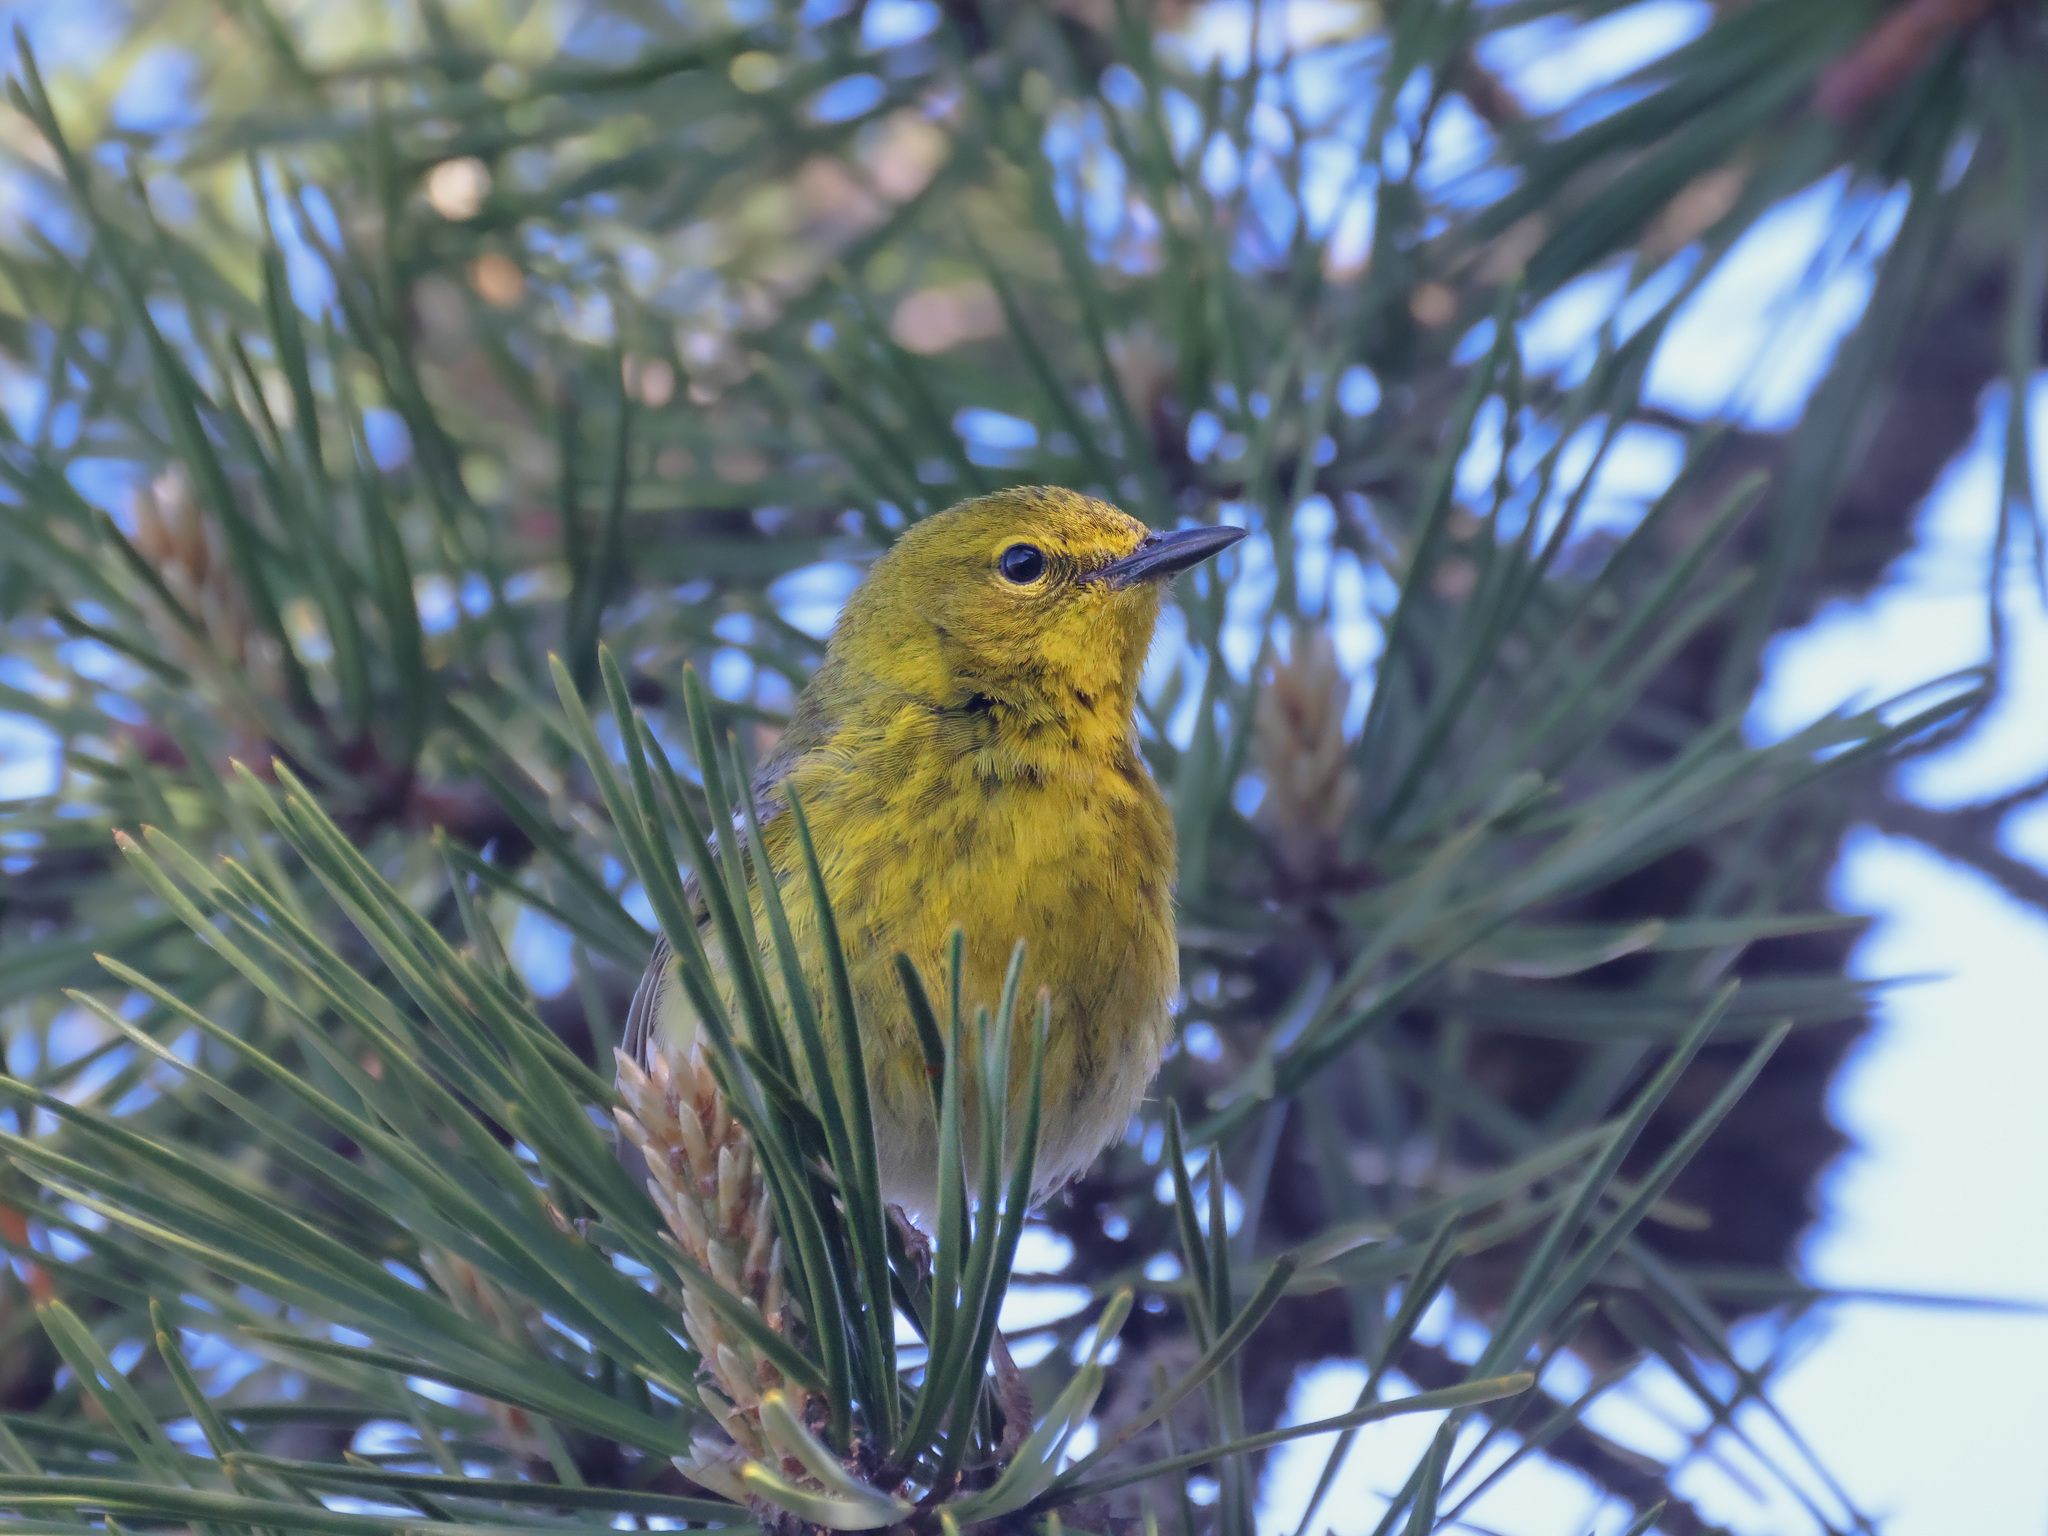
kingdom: Animalia
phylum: Chordata
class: Aves
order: Passeriformes
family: Parulidae
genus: Setophaga
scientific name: Setophaga pinus
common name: Pine warbler
